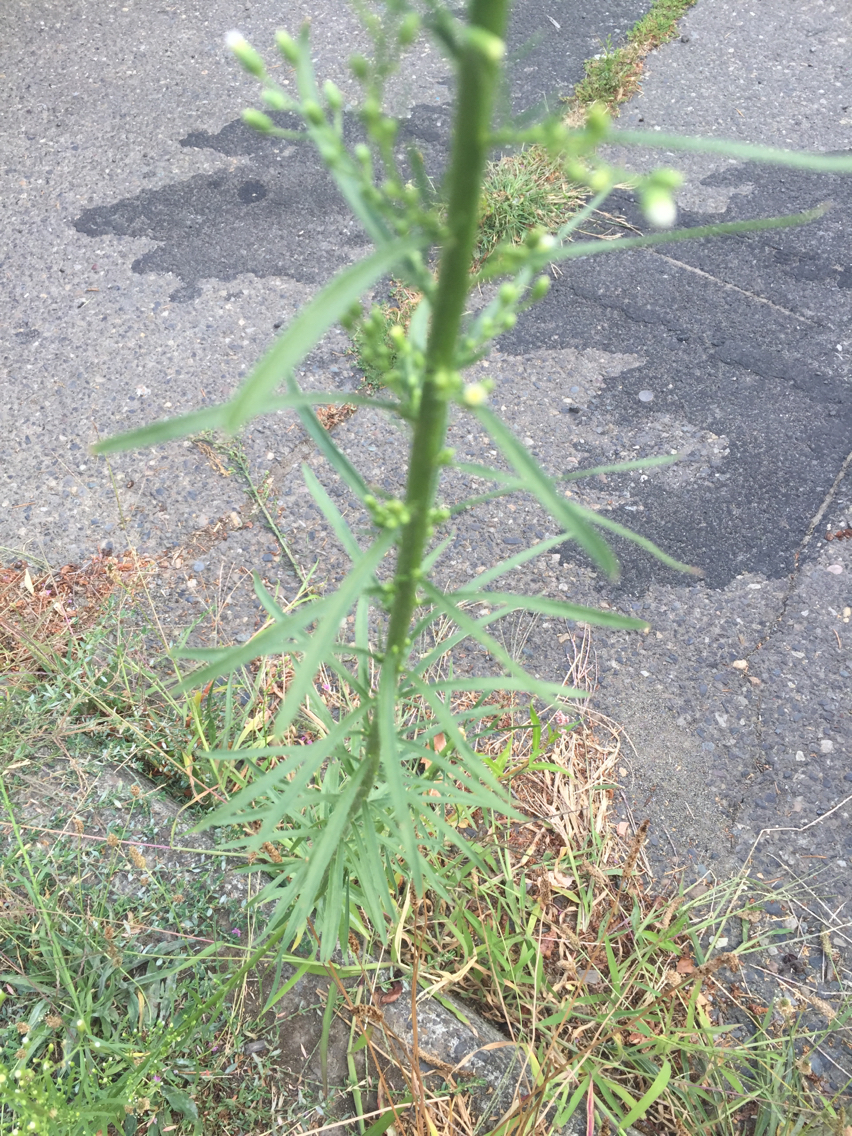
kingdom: Plantae
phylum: Tracheophyta
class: Magnoliopsida
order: Asterales
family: Asteraceae
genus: Erigeron
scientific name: Erigeron canadensis
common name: Canadian fleabane
